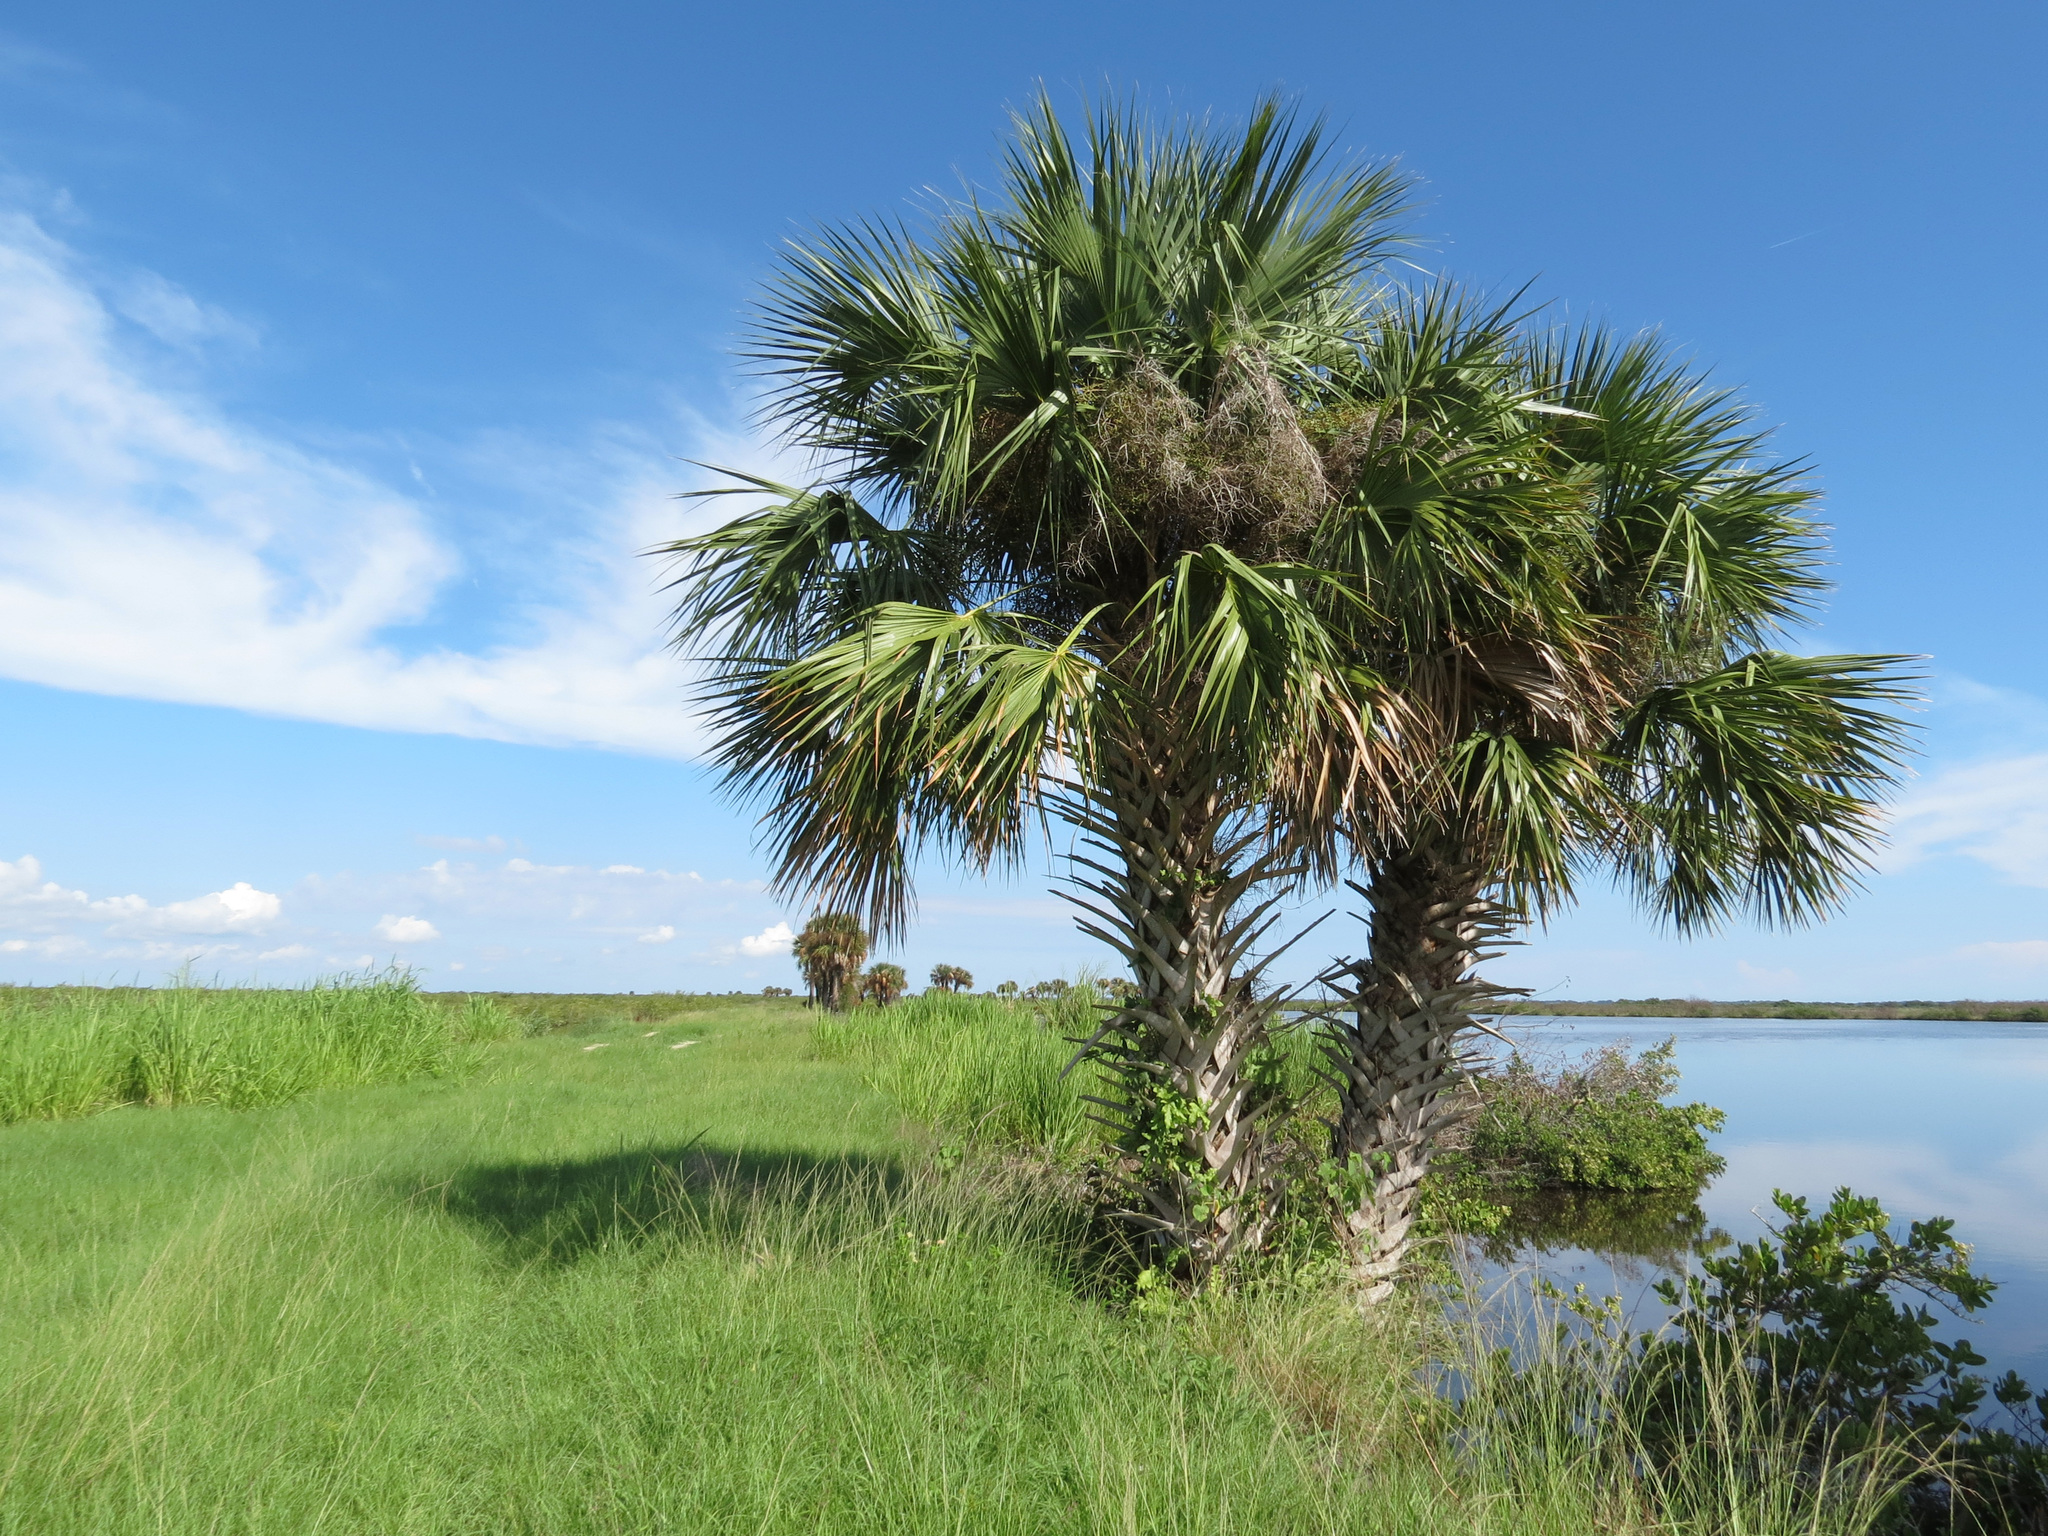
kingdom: Plantae
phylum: Tracheophyta
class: Liliopsida
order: Arecales
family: Arecaceae
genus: Sabal
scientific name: Sabal palmetto
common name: Blue palmetto
